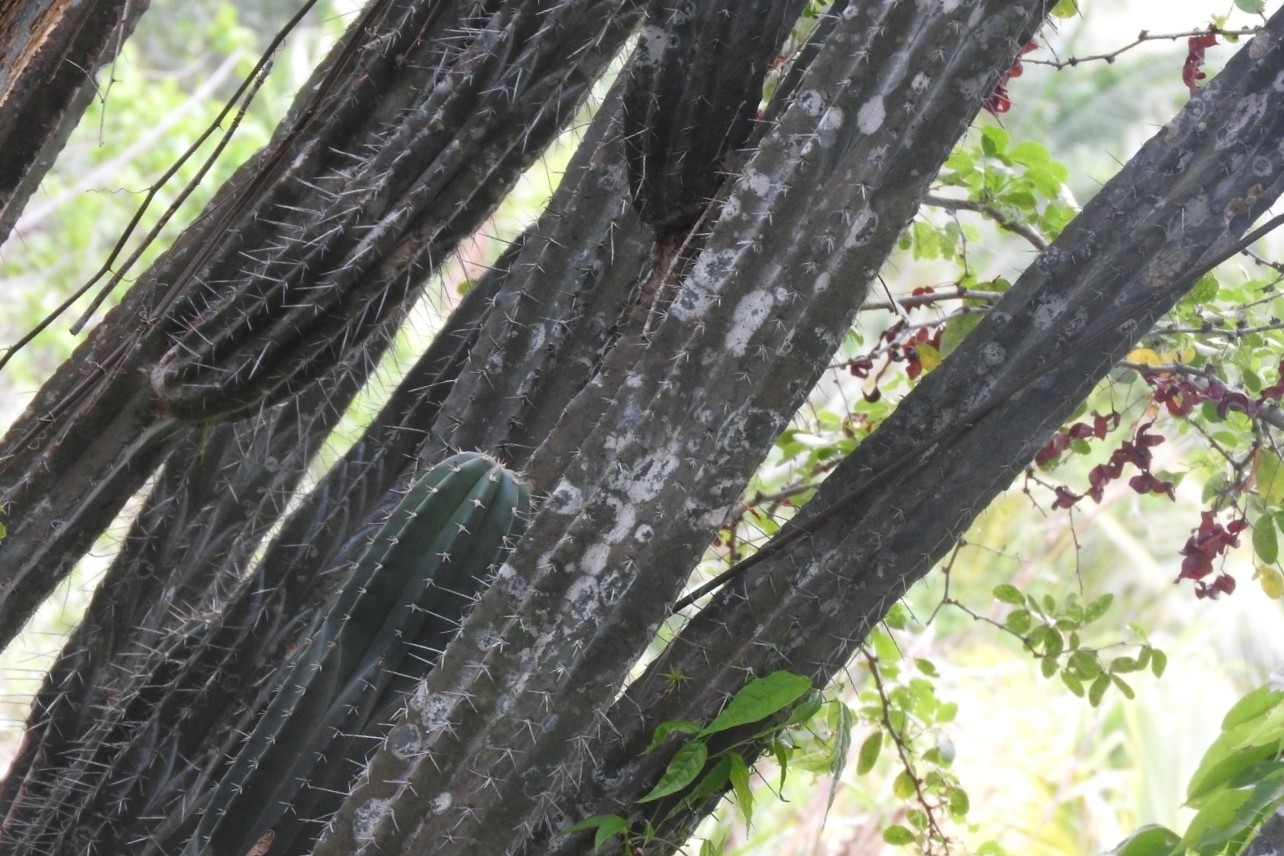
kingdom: Plantae
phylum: Tracheophyta
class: Magnoliopsida
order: Caryophyllales
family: Cactaceae
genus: Stenocereus
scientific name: Stenocereus aragonii
